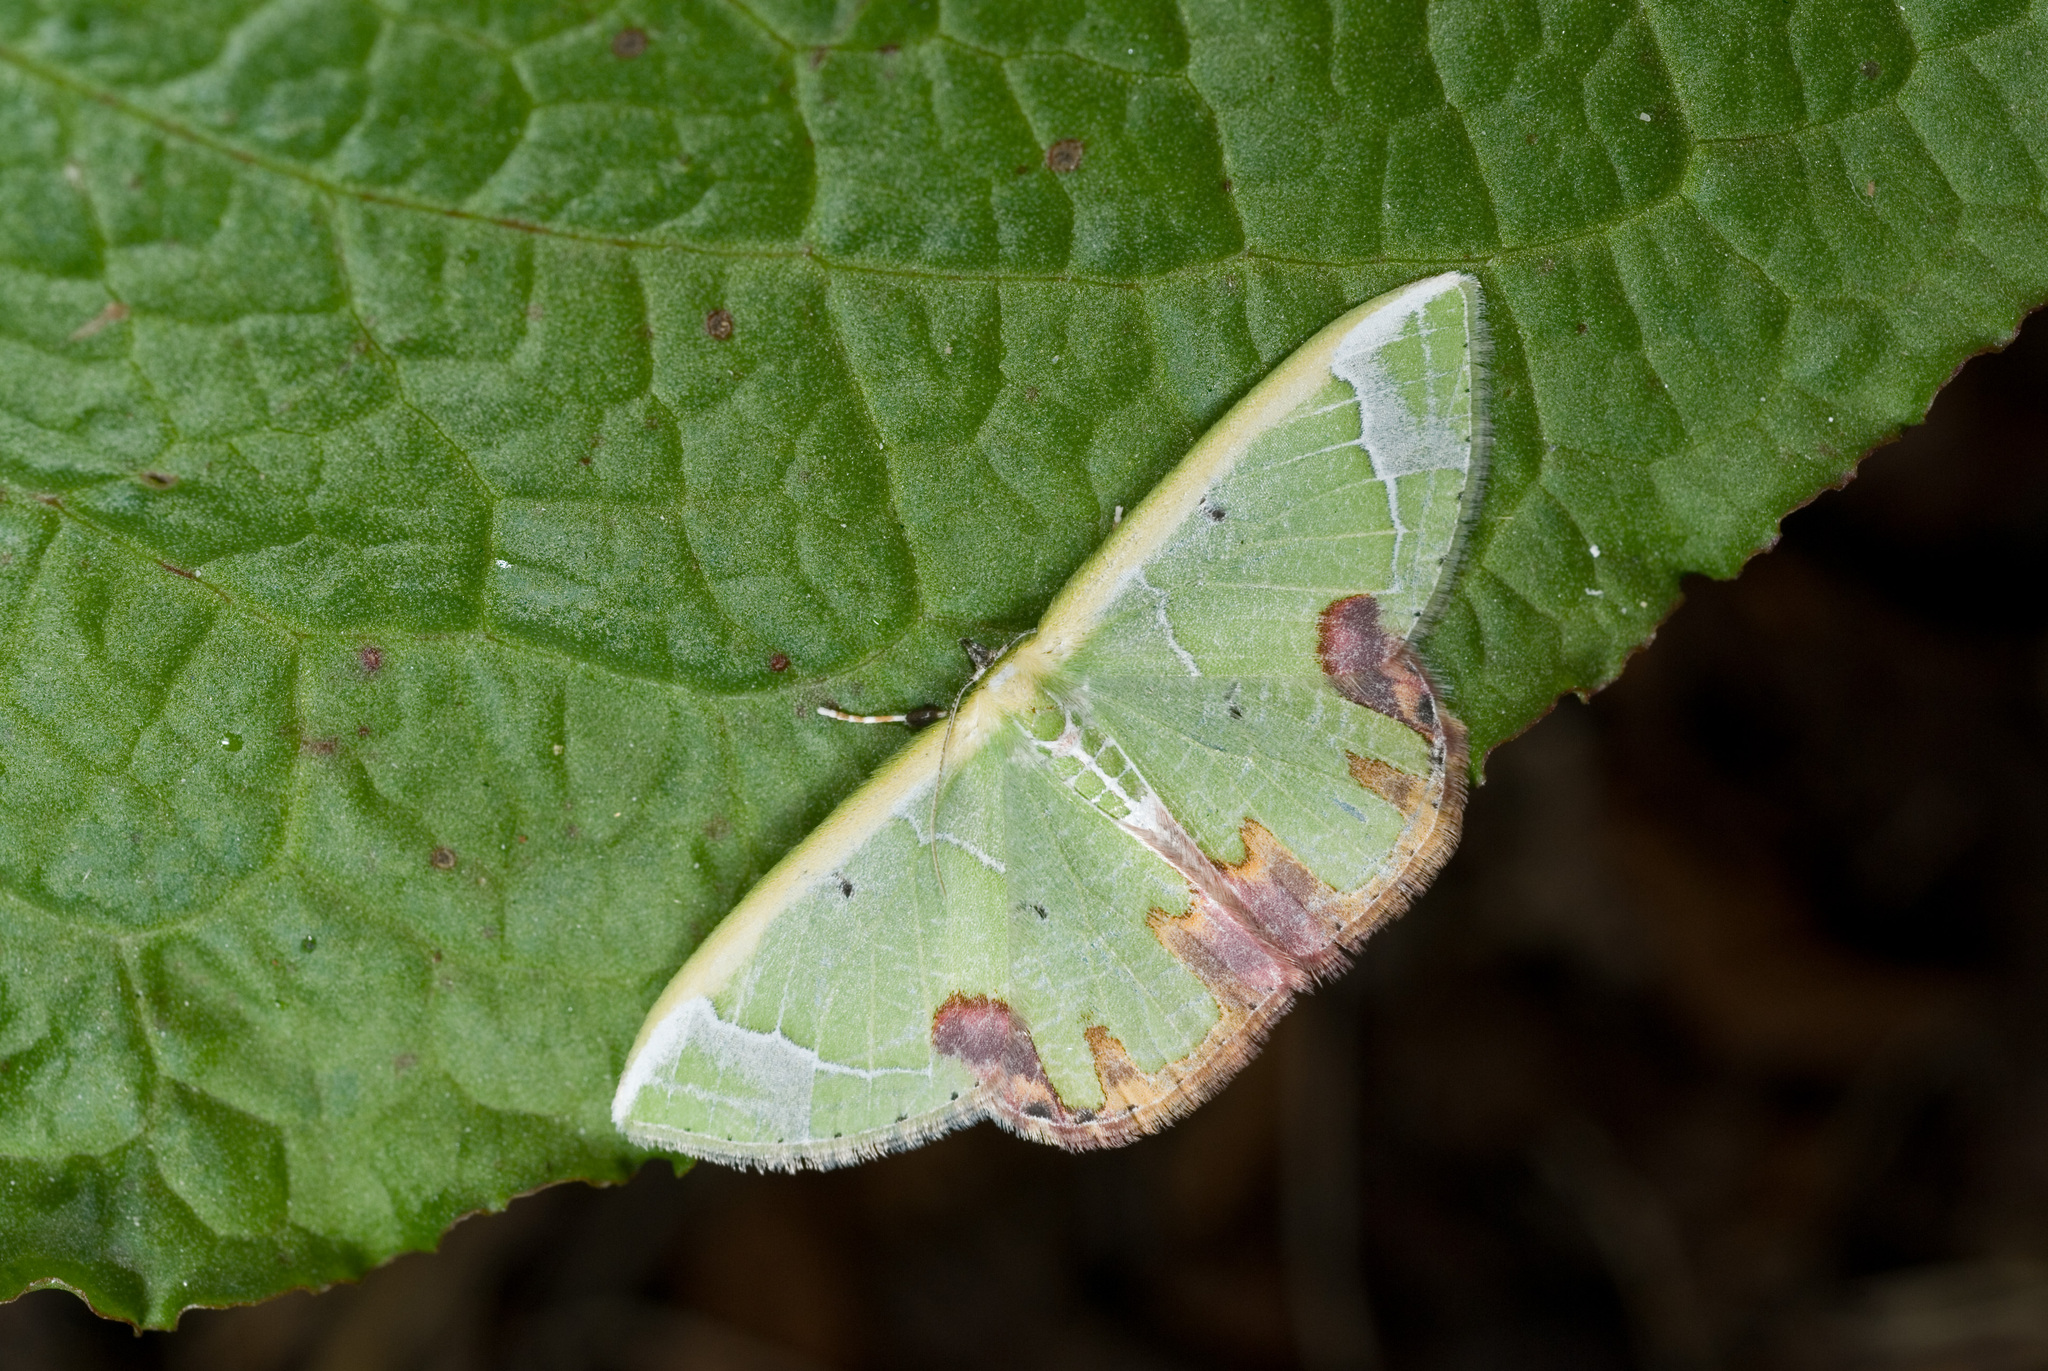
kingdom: Animalia
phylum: Arthropoda
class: Insecta
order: Lepidoptera
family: Geometridae
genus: Comibaena
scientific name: Comibaena pictipennis
